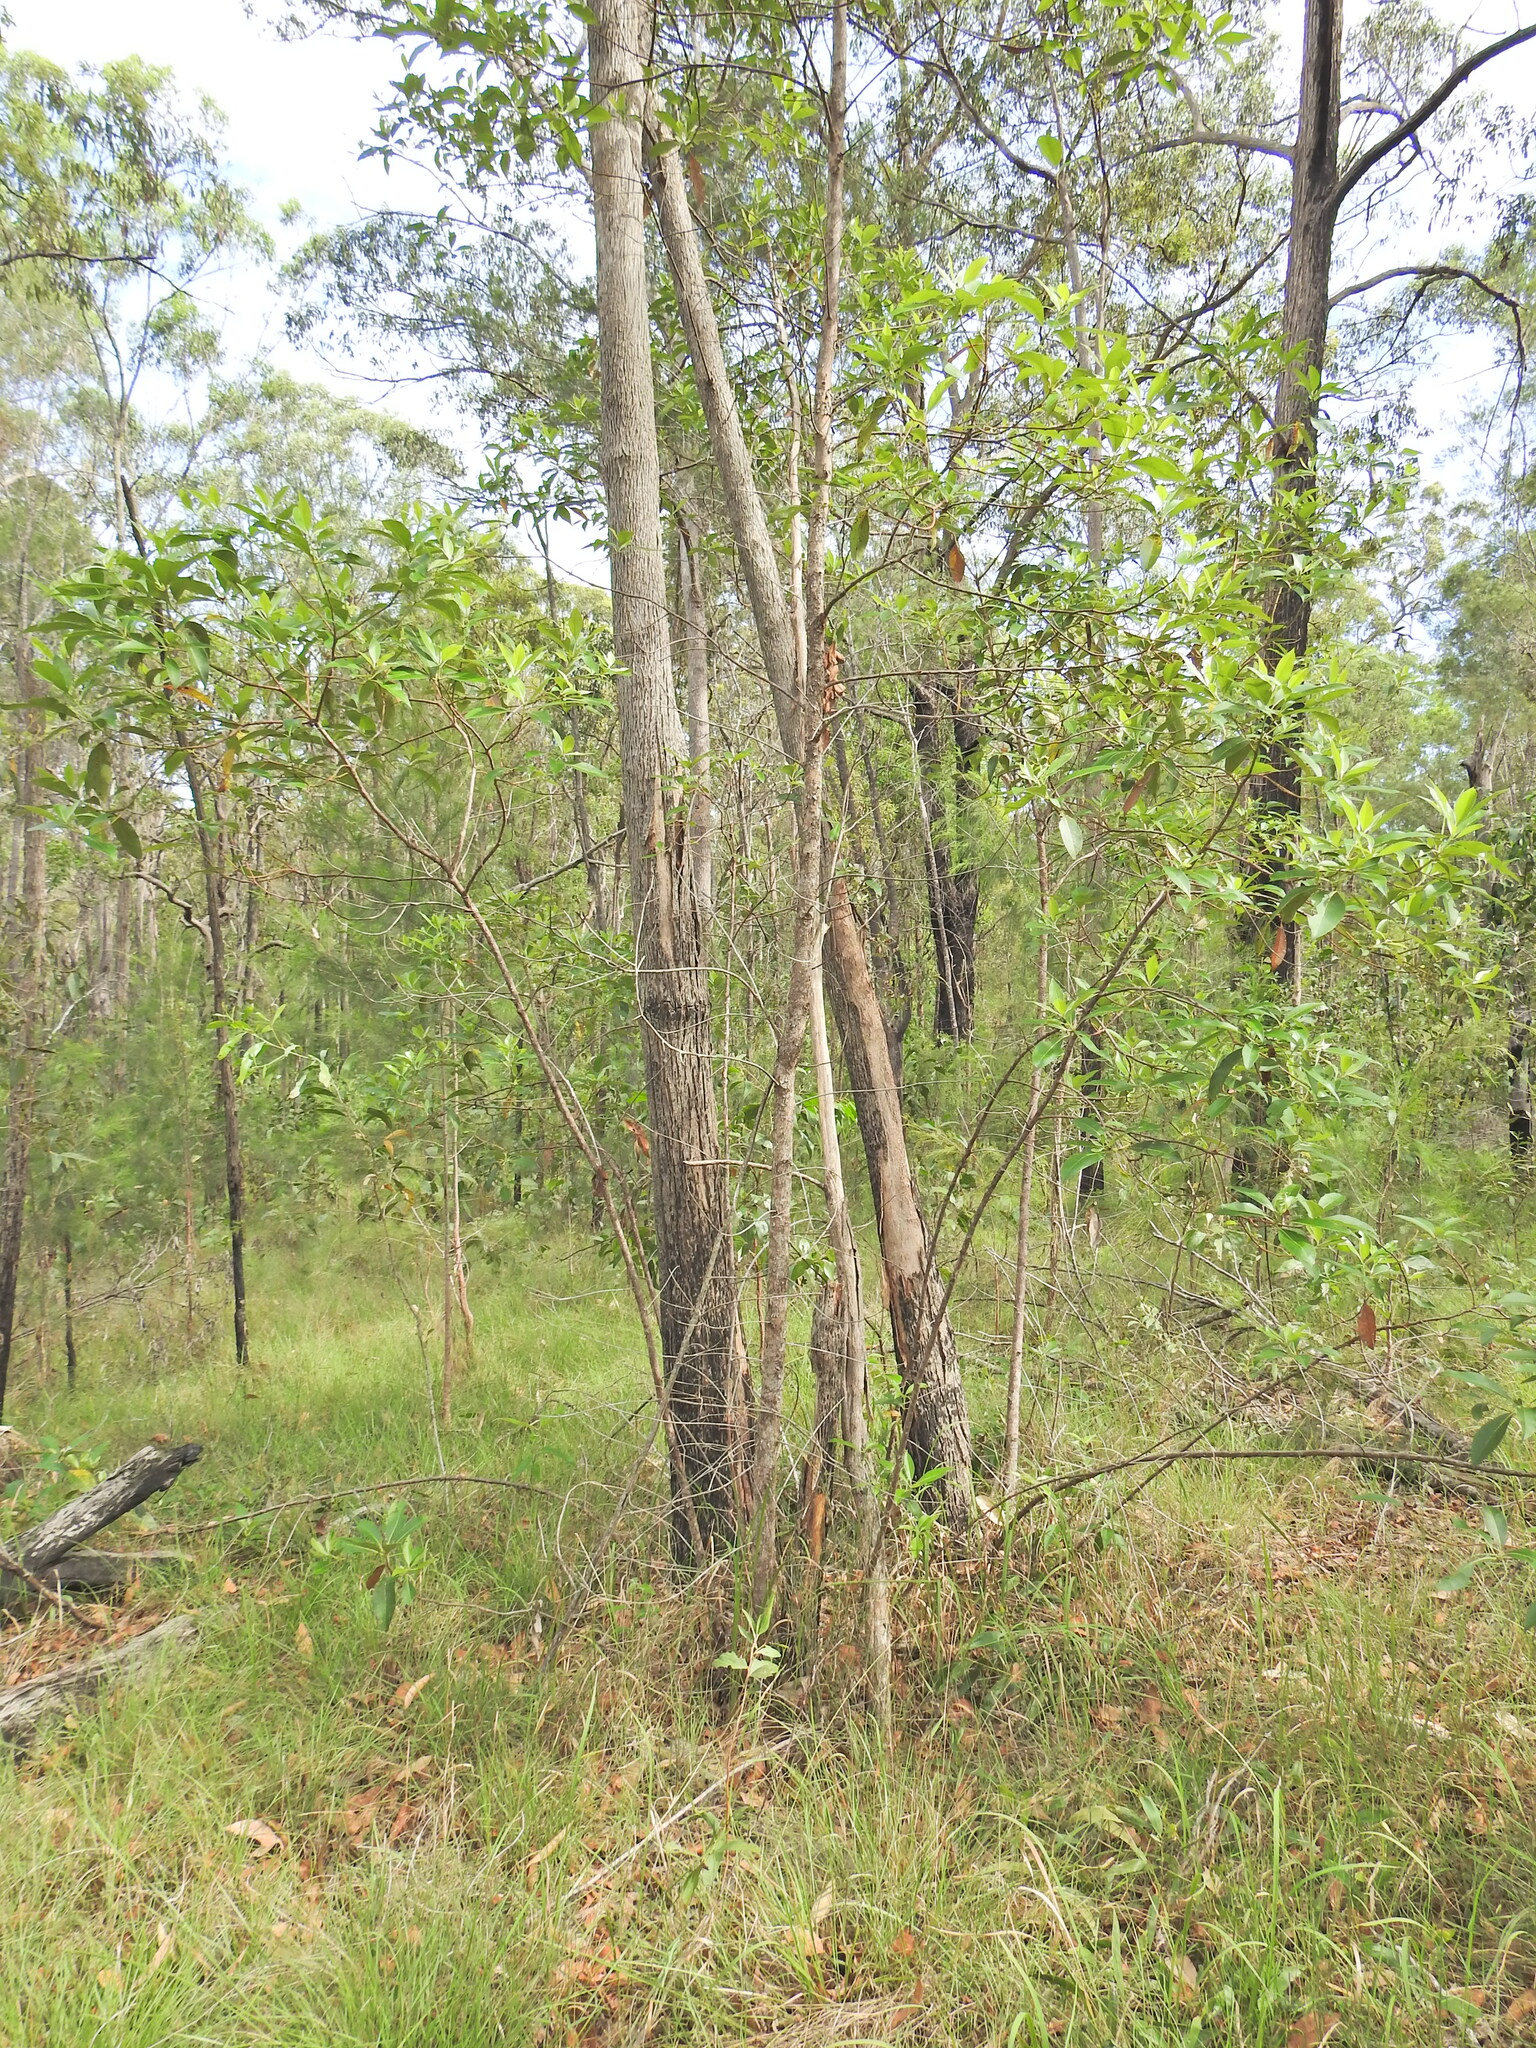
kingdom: Plantae
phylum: Tracheophyta
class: Magnoliopsida
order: Myrtales
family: Myrtaceae
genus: Lophostemon
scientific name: Lophostemon confertus
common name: Brisbane box
